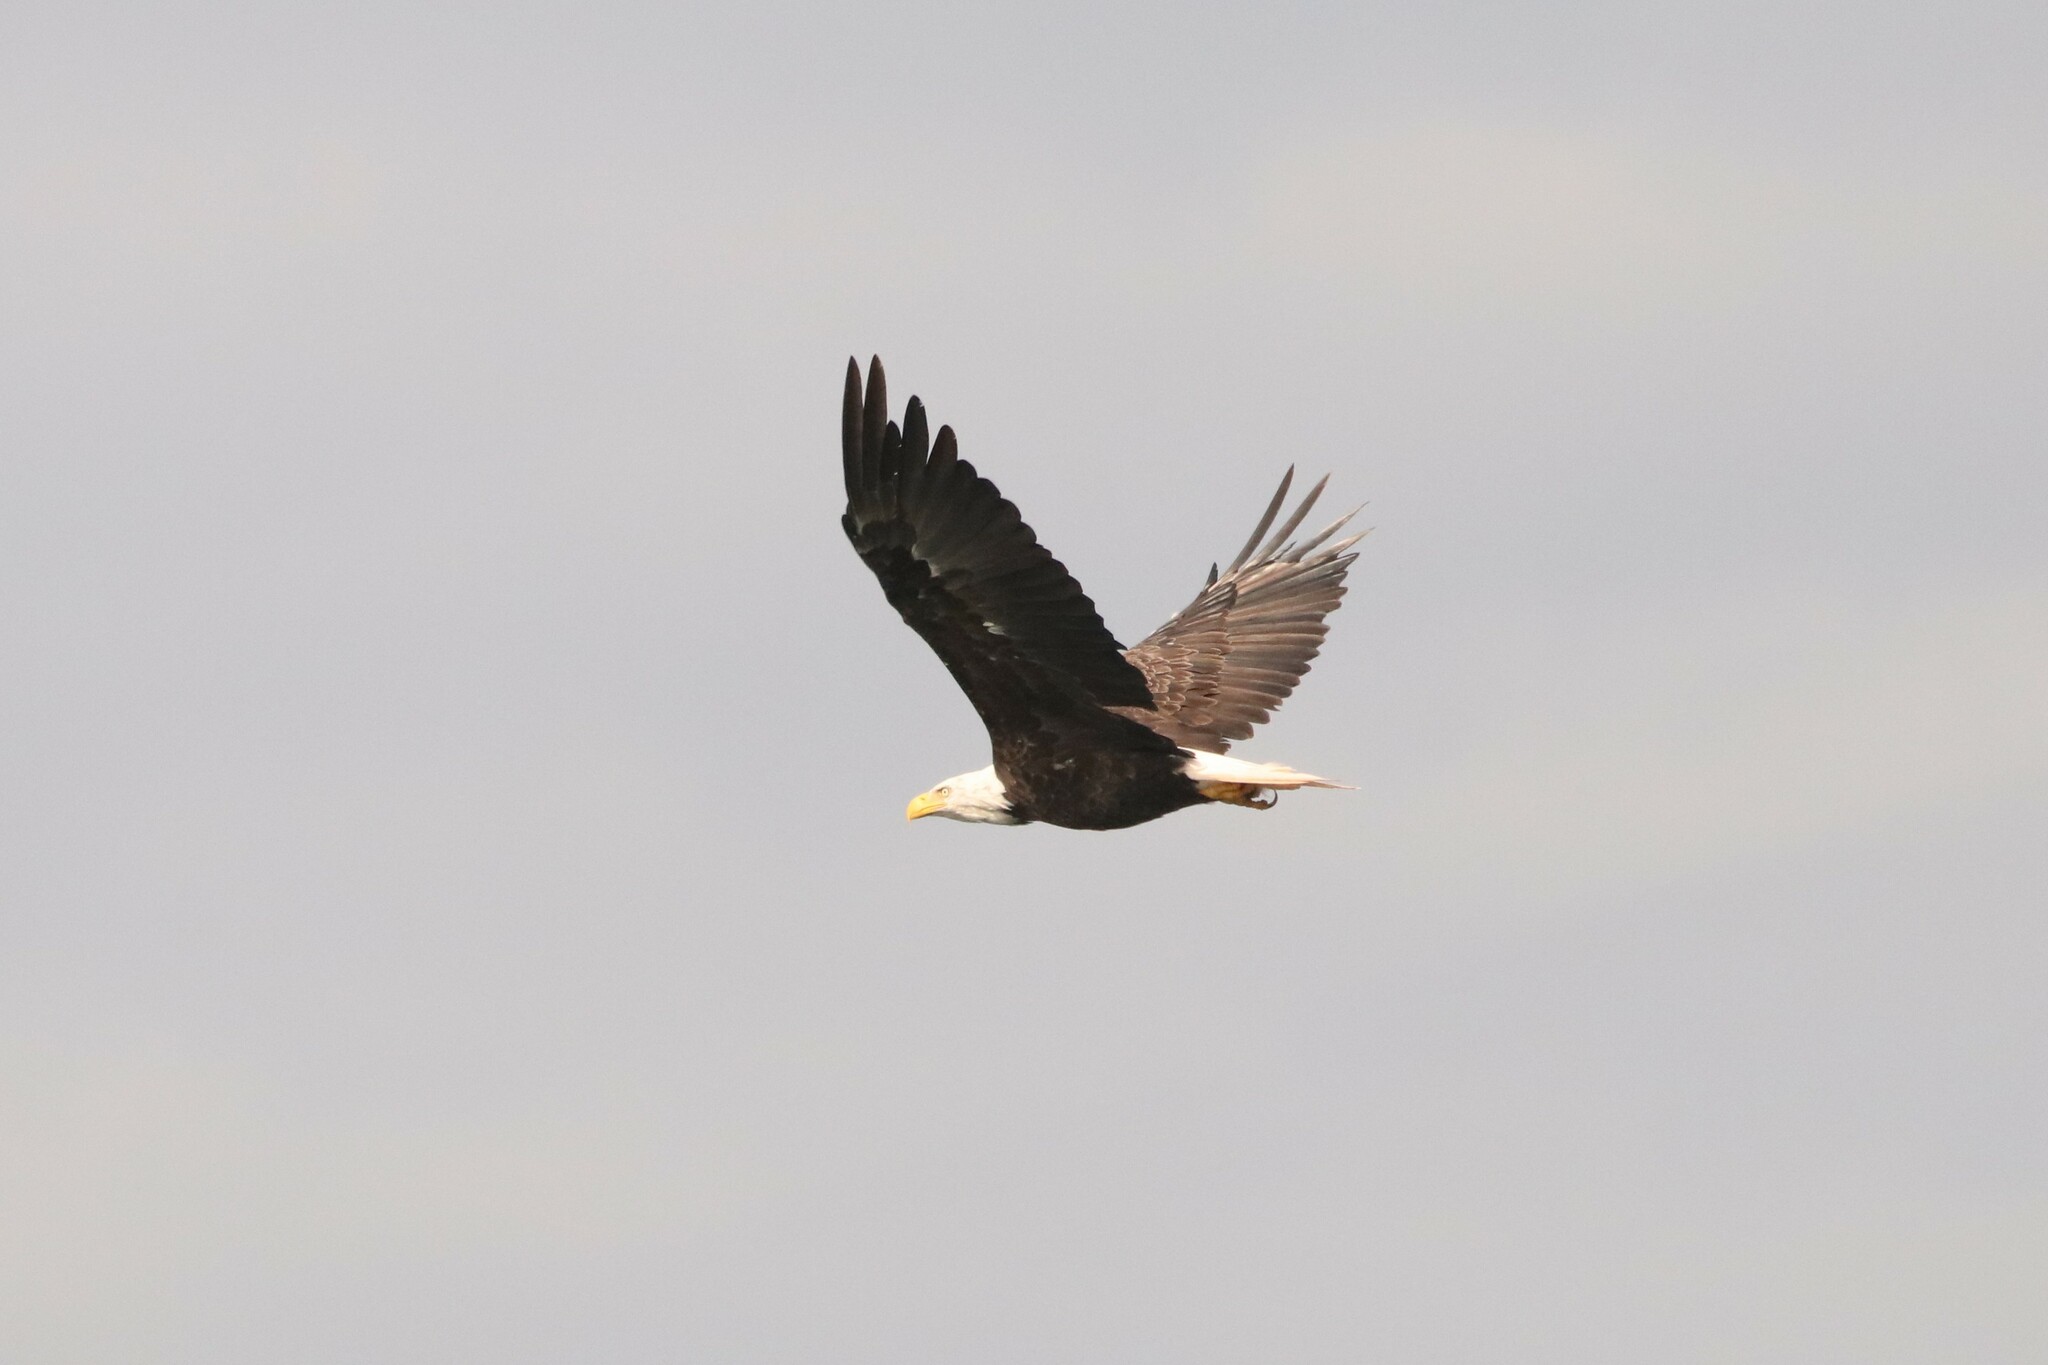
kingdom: Animalia
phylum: Chordata
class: Aves
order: Accipitriformes
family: Accipitridae
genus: Haliaeetus
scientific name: Haliaeetus leucocephalus
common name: Bald eagle
